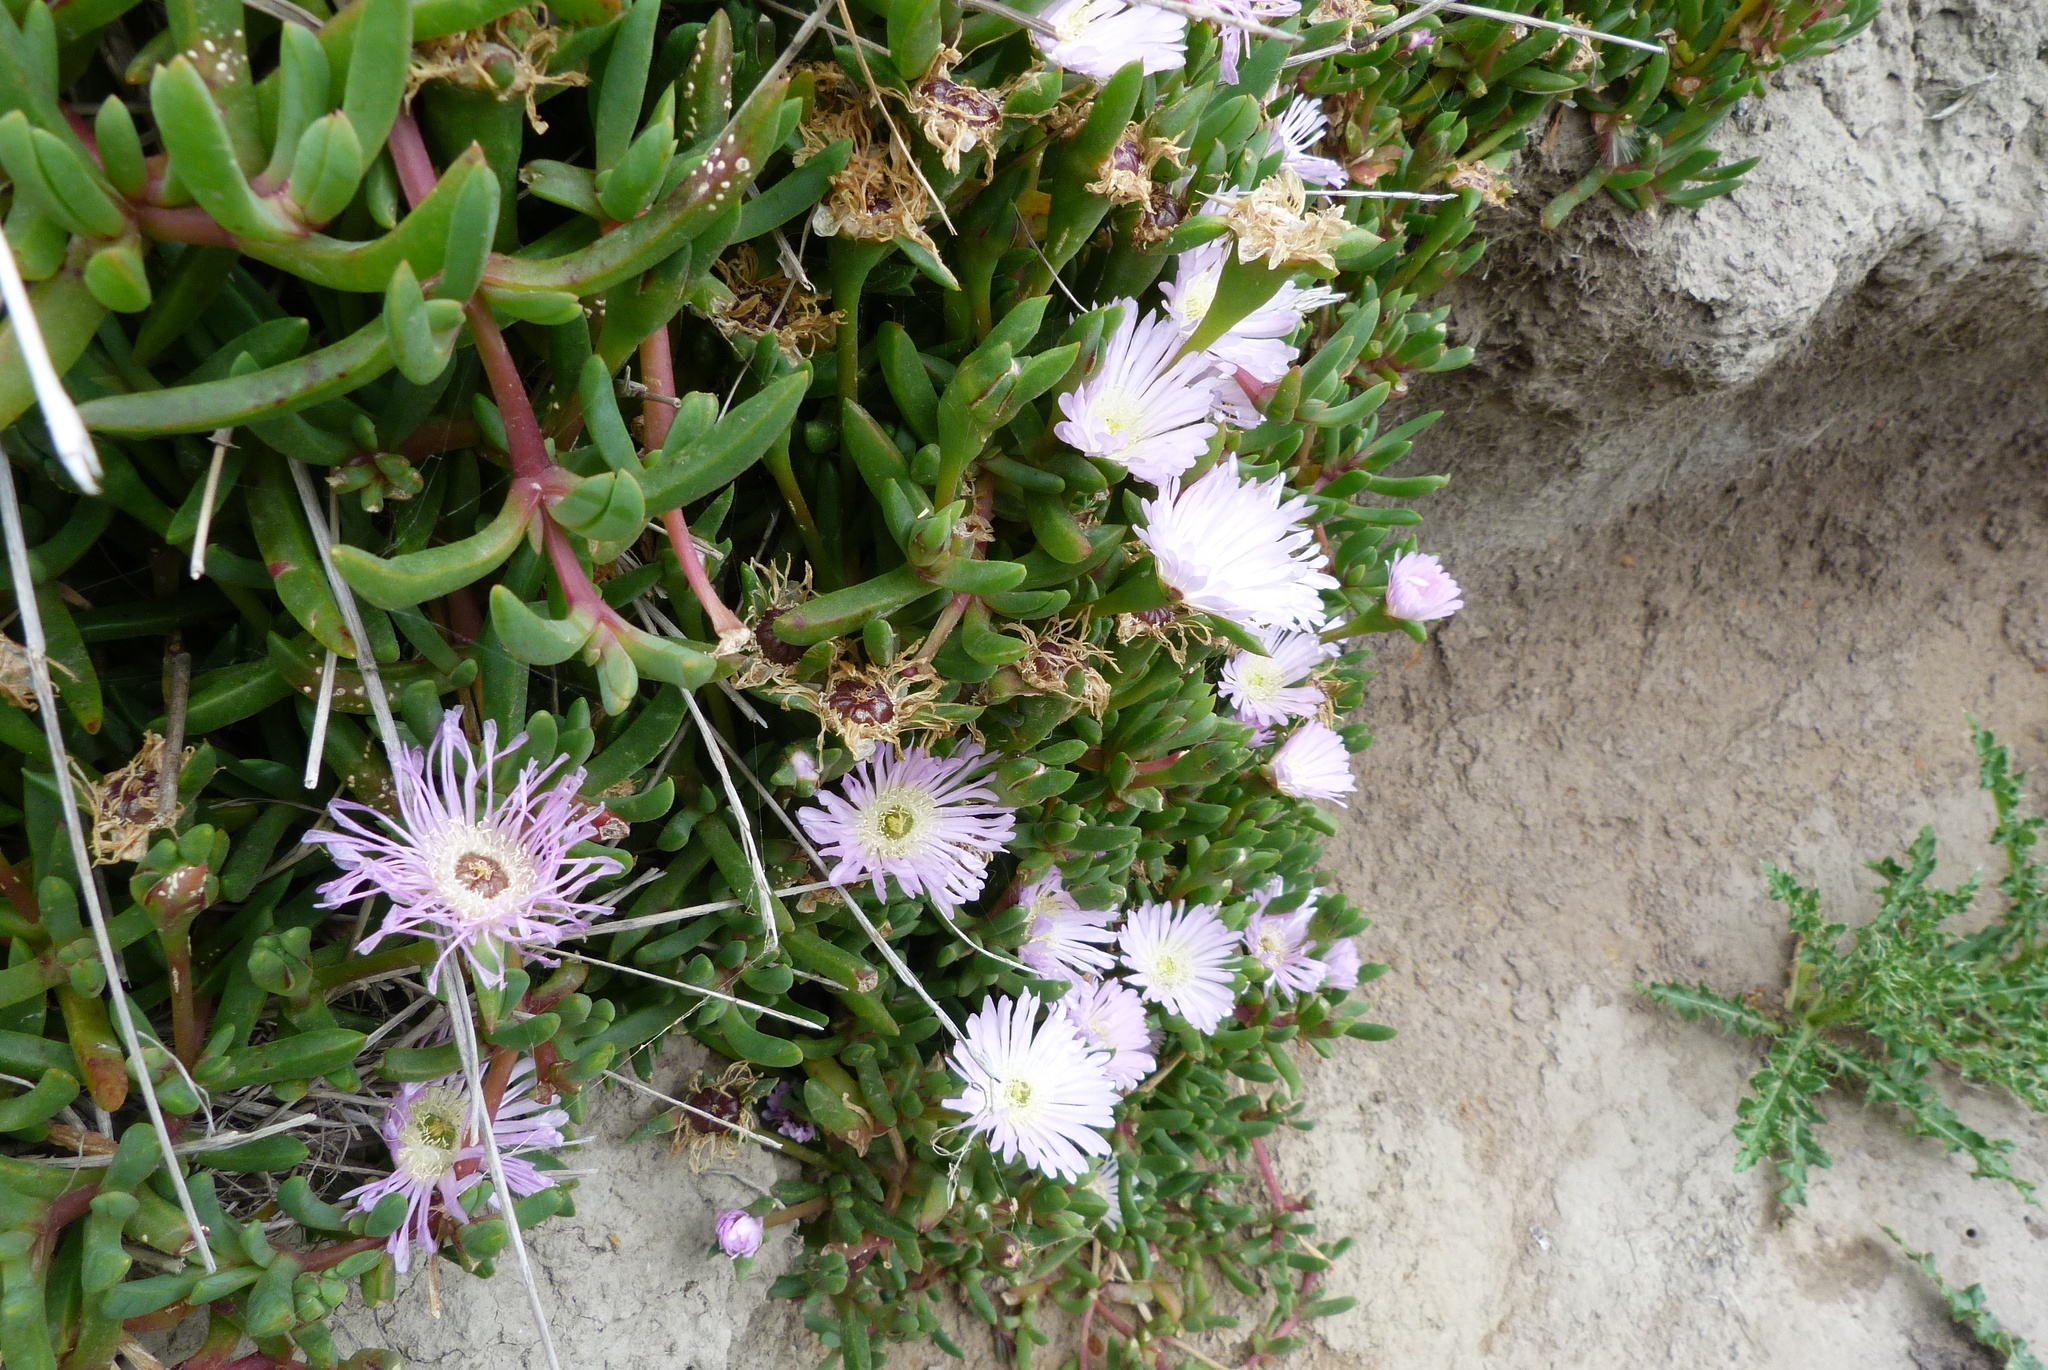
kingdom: Plantae
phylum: Tracheophyta
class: Magnoliopsida
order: Caryophyllales
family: Aizoaceae
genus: Disphyma
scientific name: Disphyma australe
